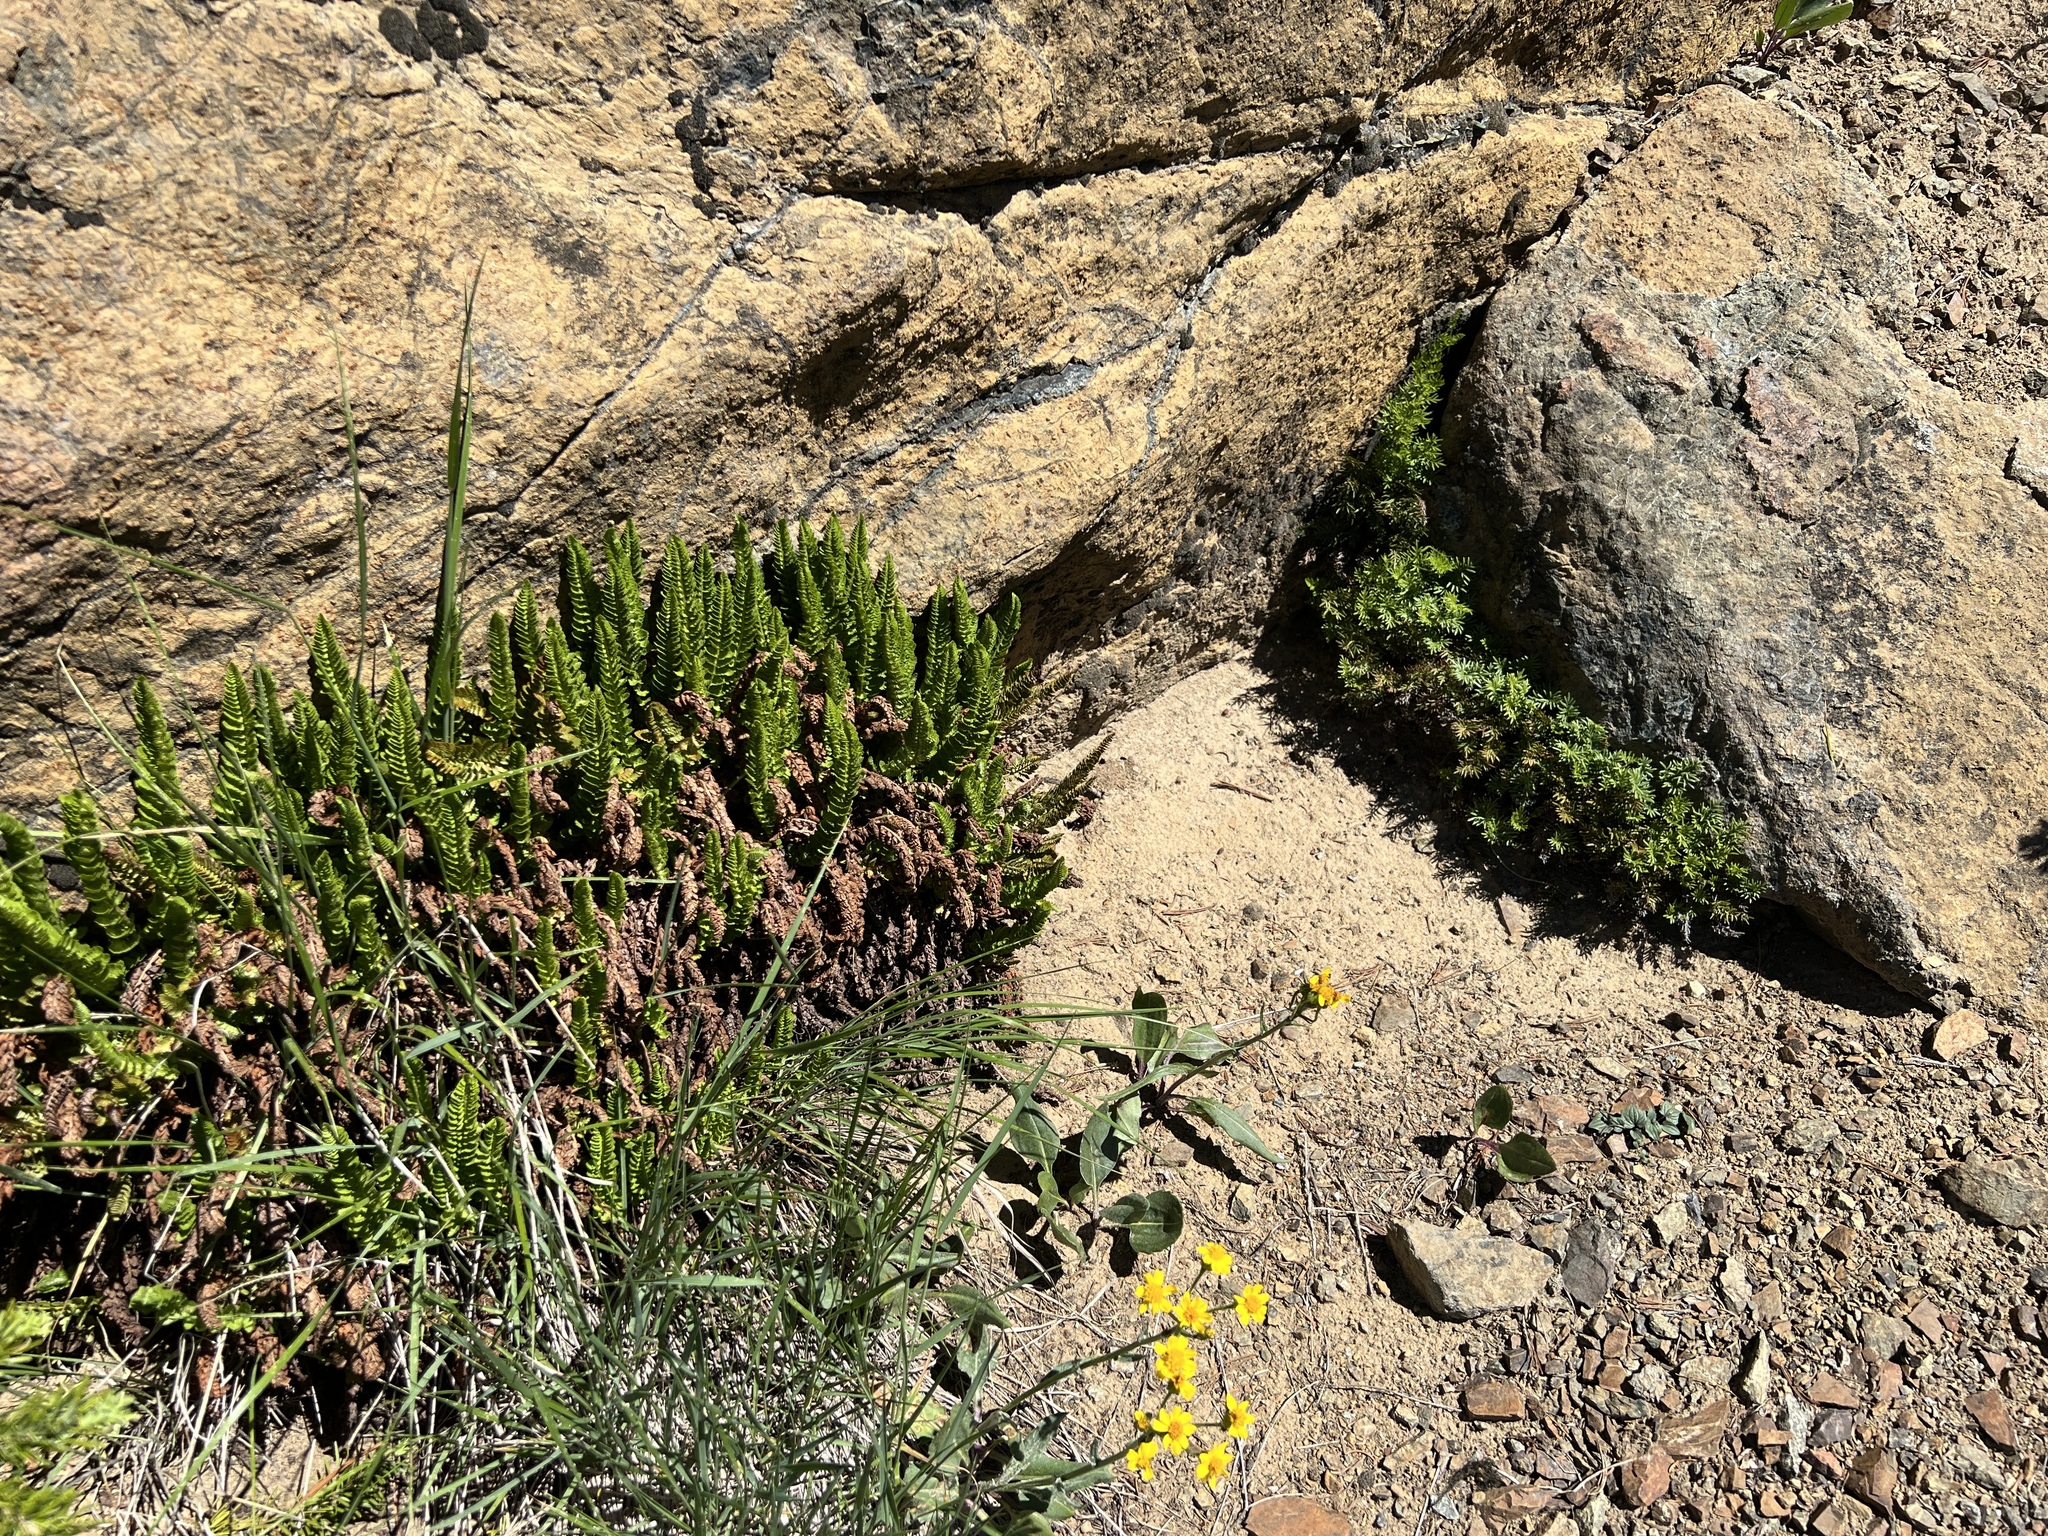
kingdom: Plantae
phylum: Tracheophyta
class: Polypodiopsida
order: Polypodiales
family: Dryopteridaceae
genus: Polystichum
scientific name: Polystichum lemmonii
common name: Lemmon's holly fern
